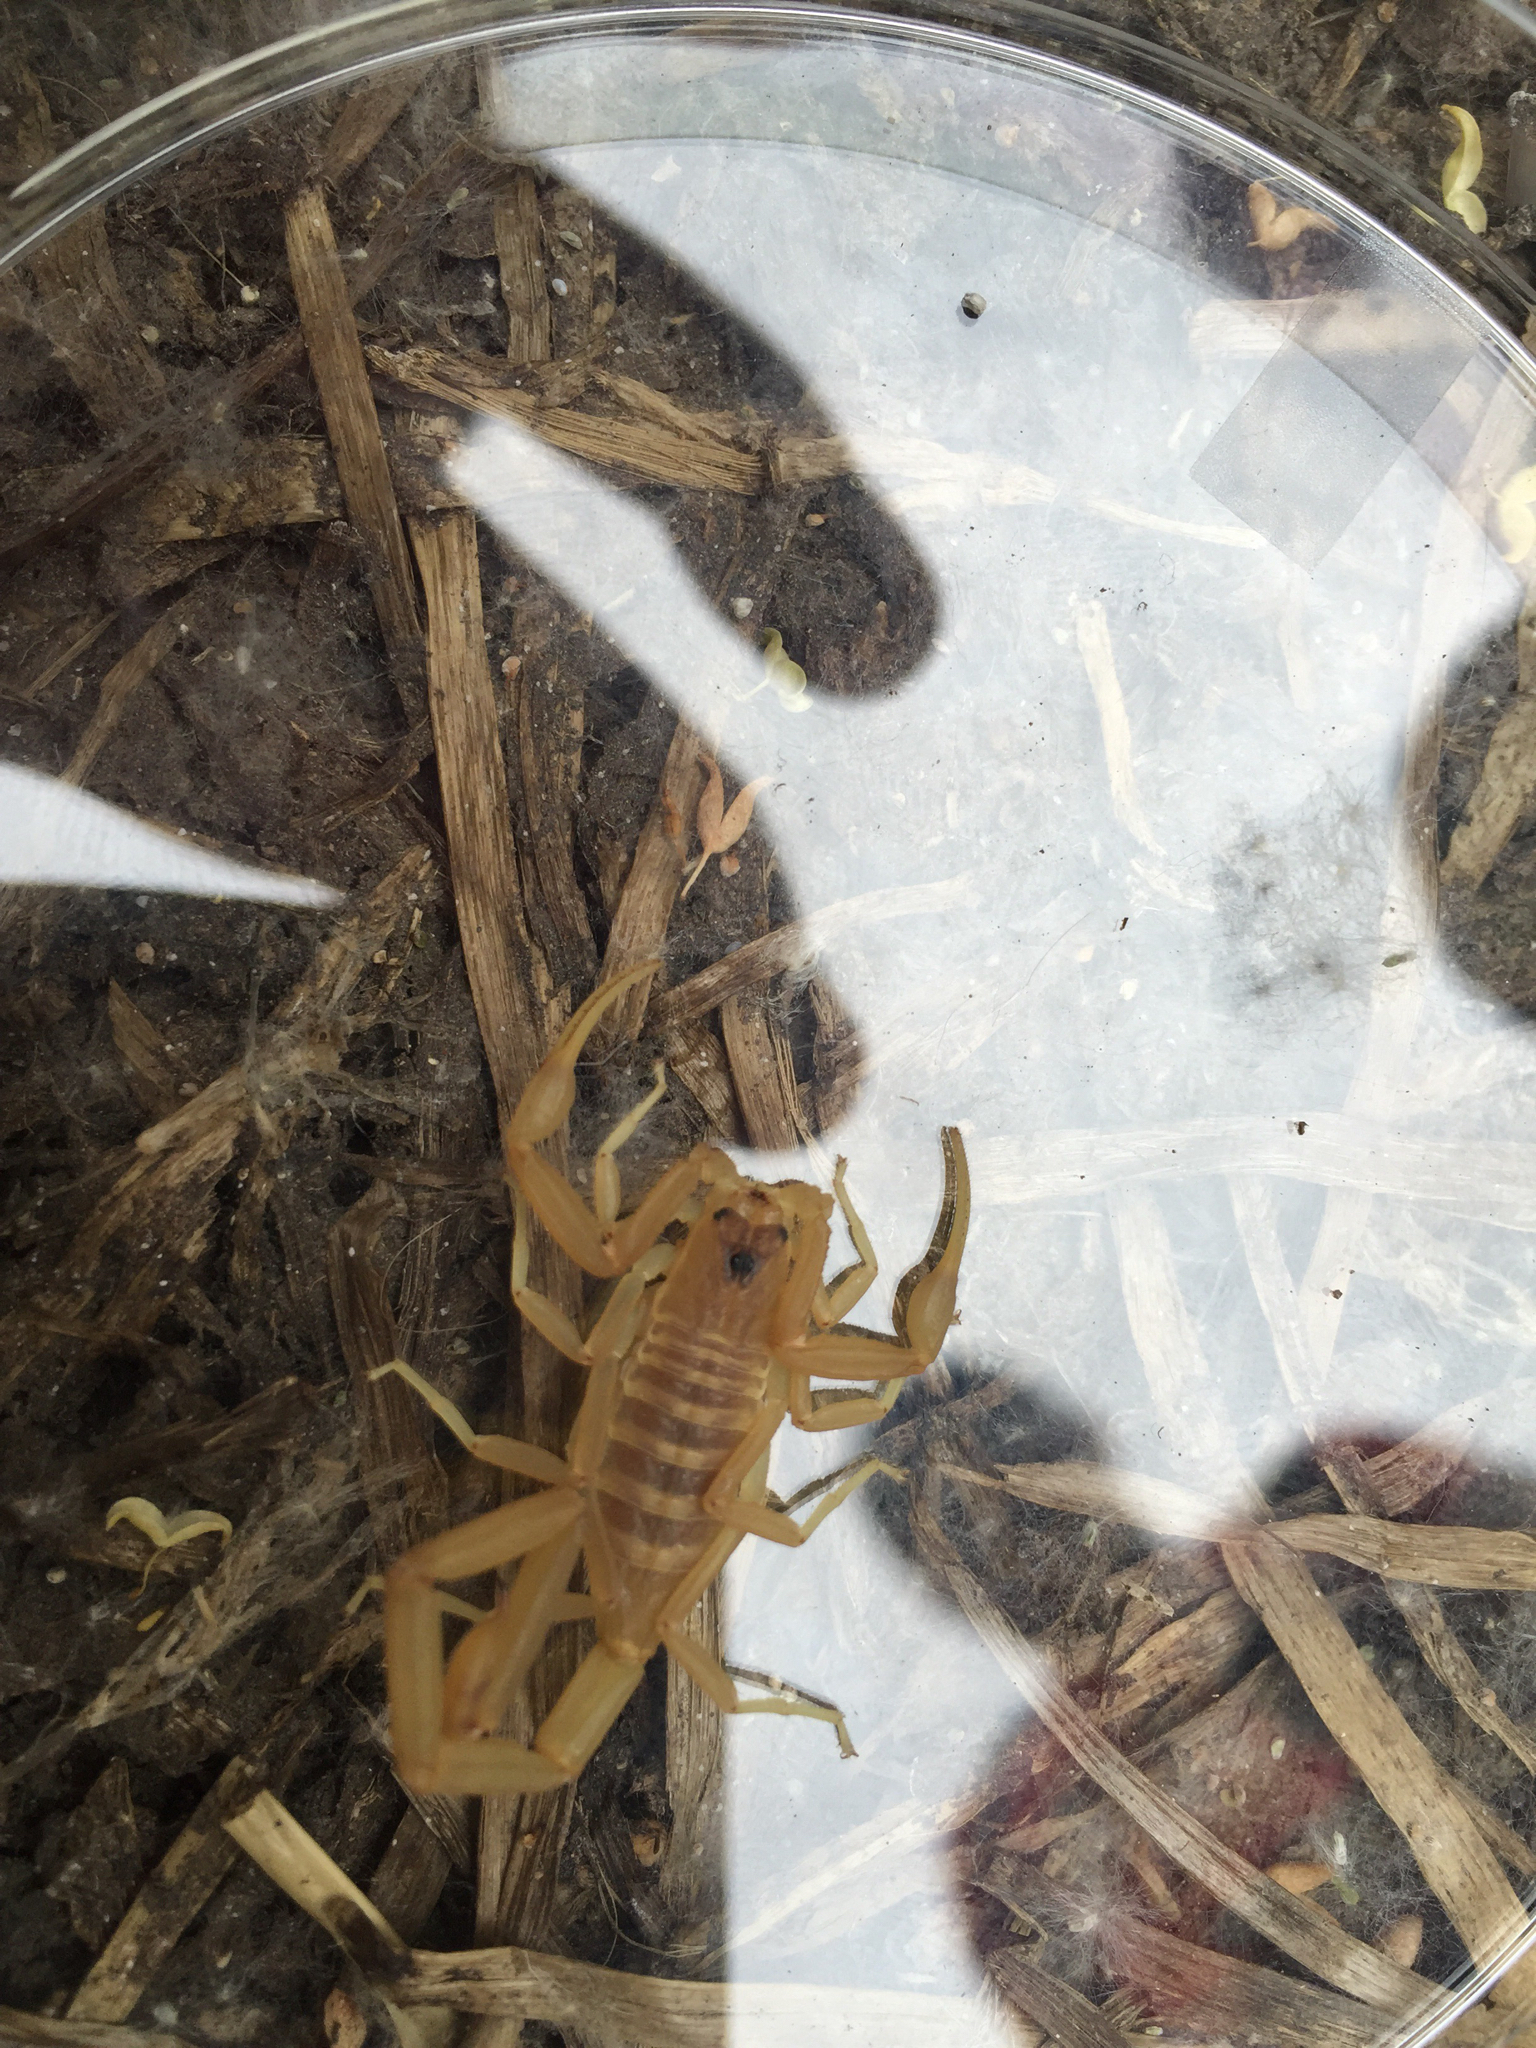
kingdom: Animalia
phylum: Arthropoda
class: Arachnida
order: Scorpiones
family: Buthidae
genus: Centruroides
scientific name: Centruroides vittatus
